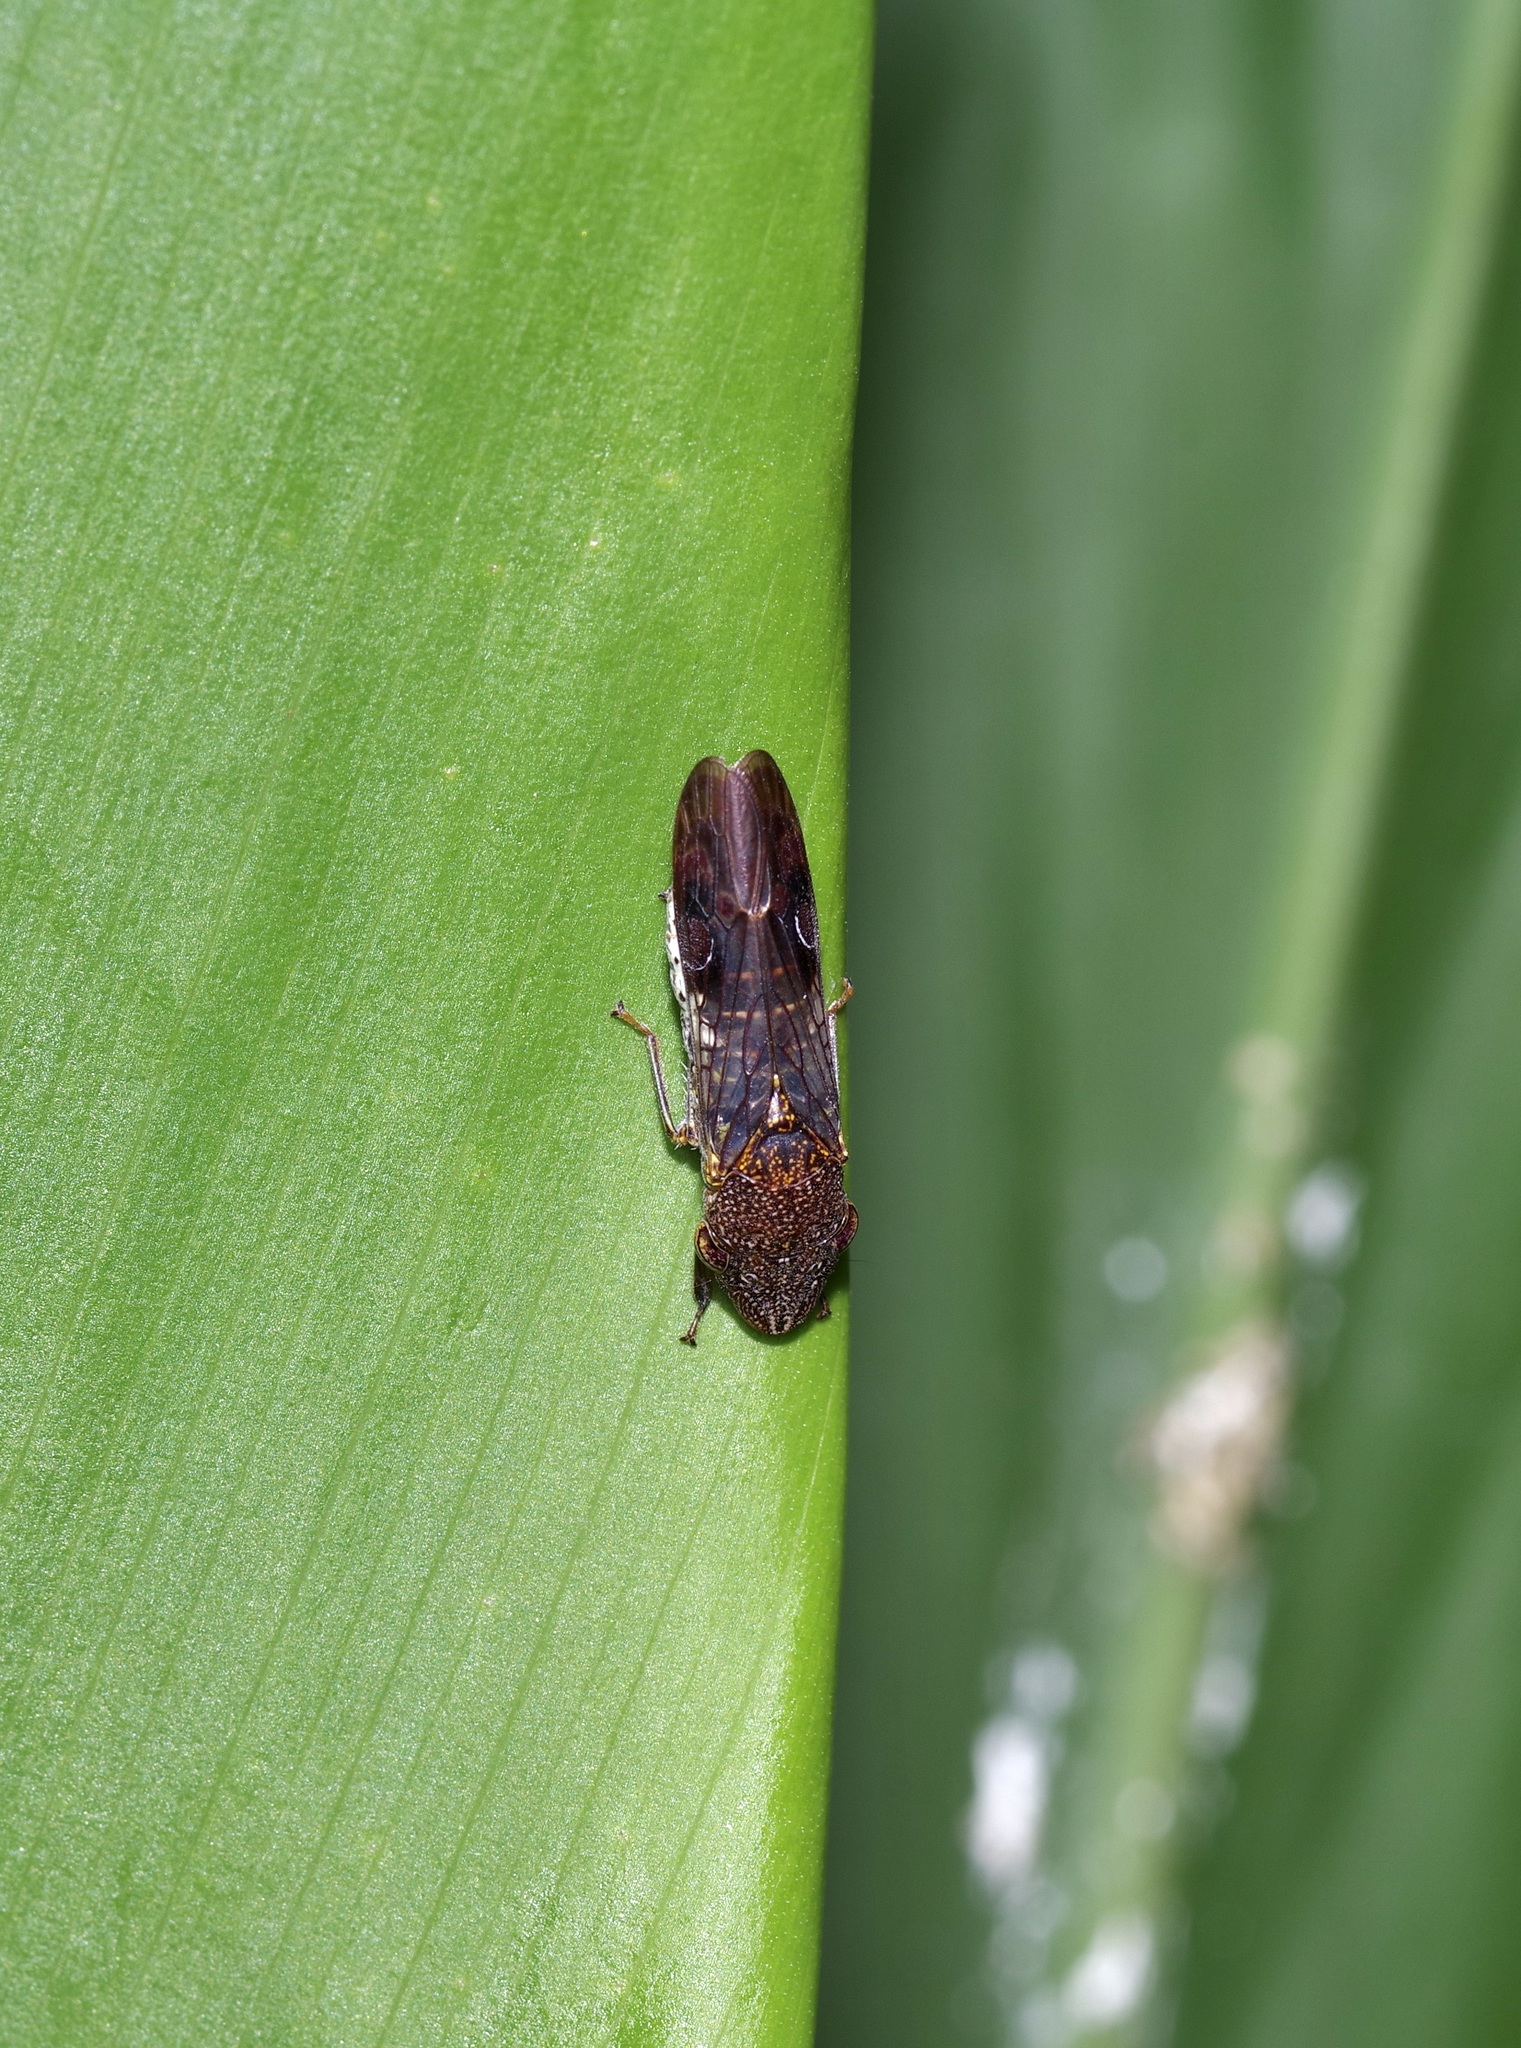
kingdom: Animalia
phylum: Arthropoda
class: Insecta
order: Hemiptera
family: Cicadellidae
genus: Homalodisca
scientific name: Homalodisca vitripennis
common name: Glassy-winged sharpshooter
